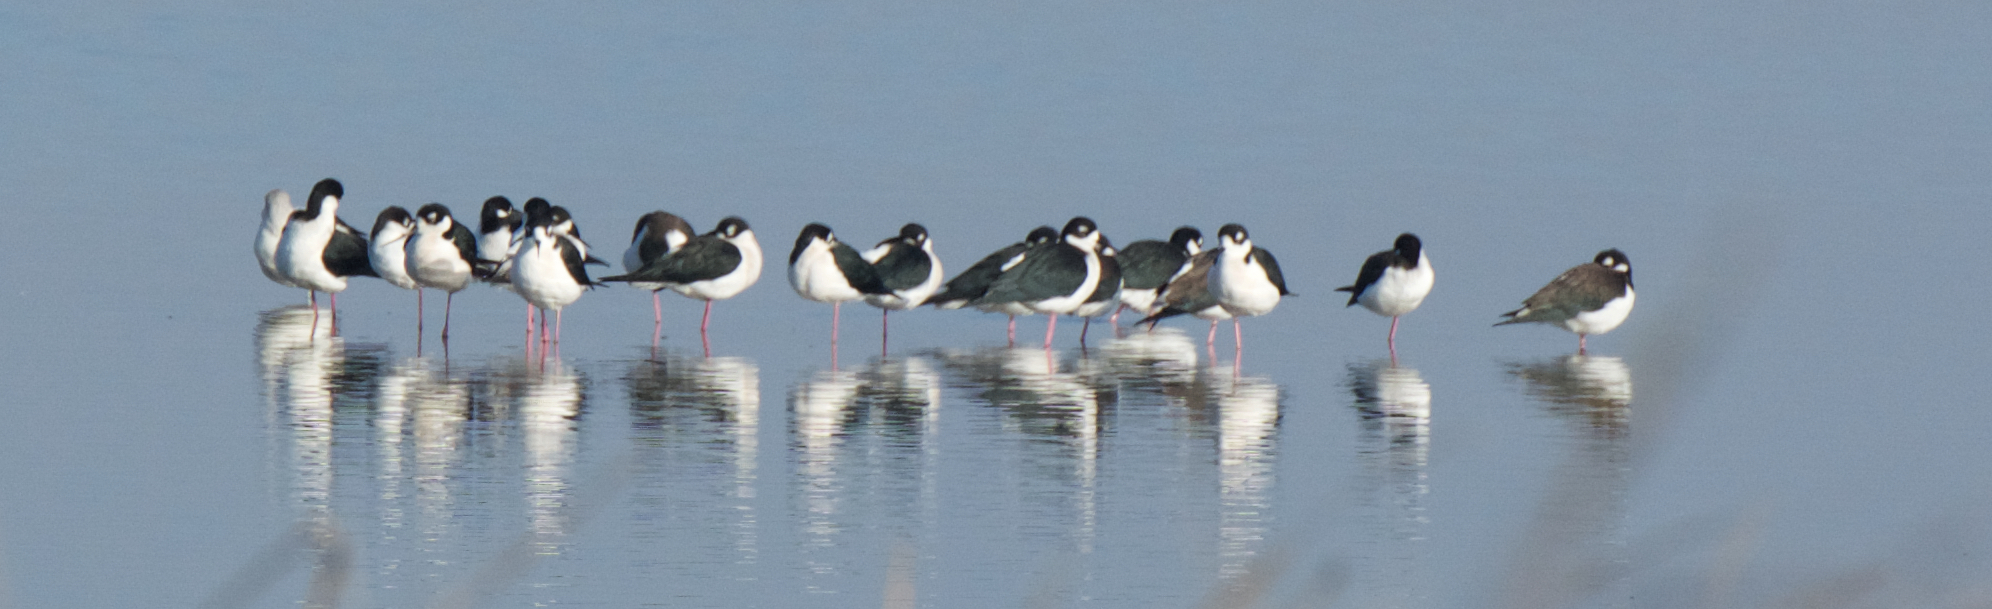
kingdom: Animalia
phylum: Chordata
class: Aves
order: Charadriiformes
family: Recurvirostridae
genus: Himantopus
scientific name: Himantopus mexicanus
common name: Black-necked stilt
